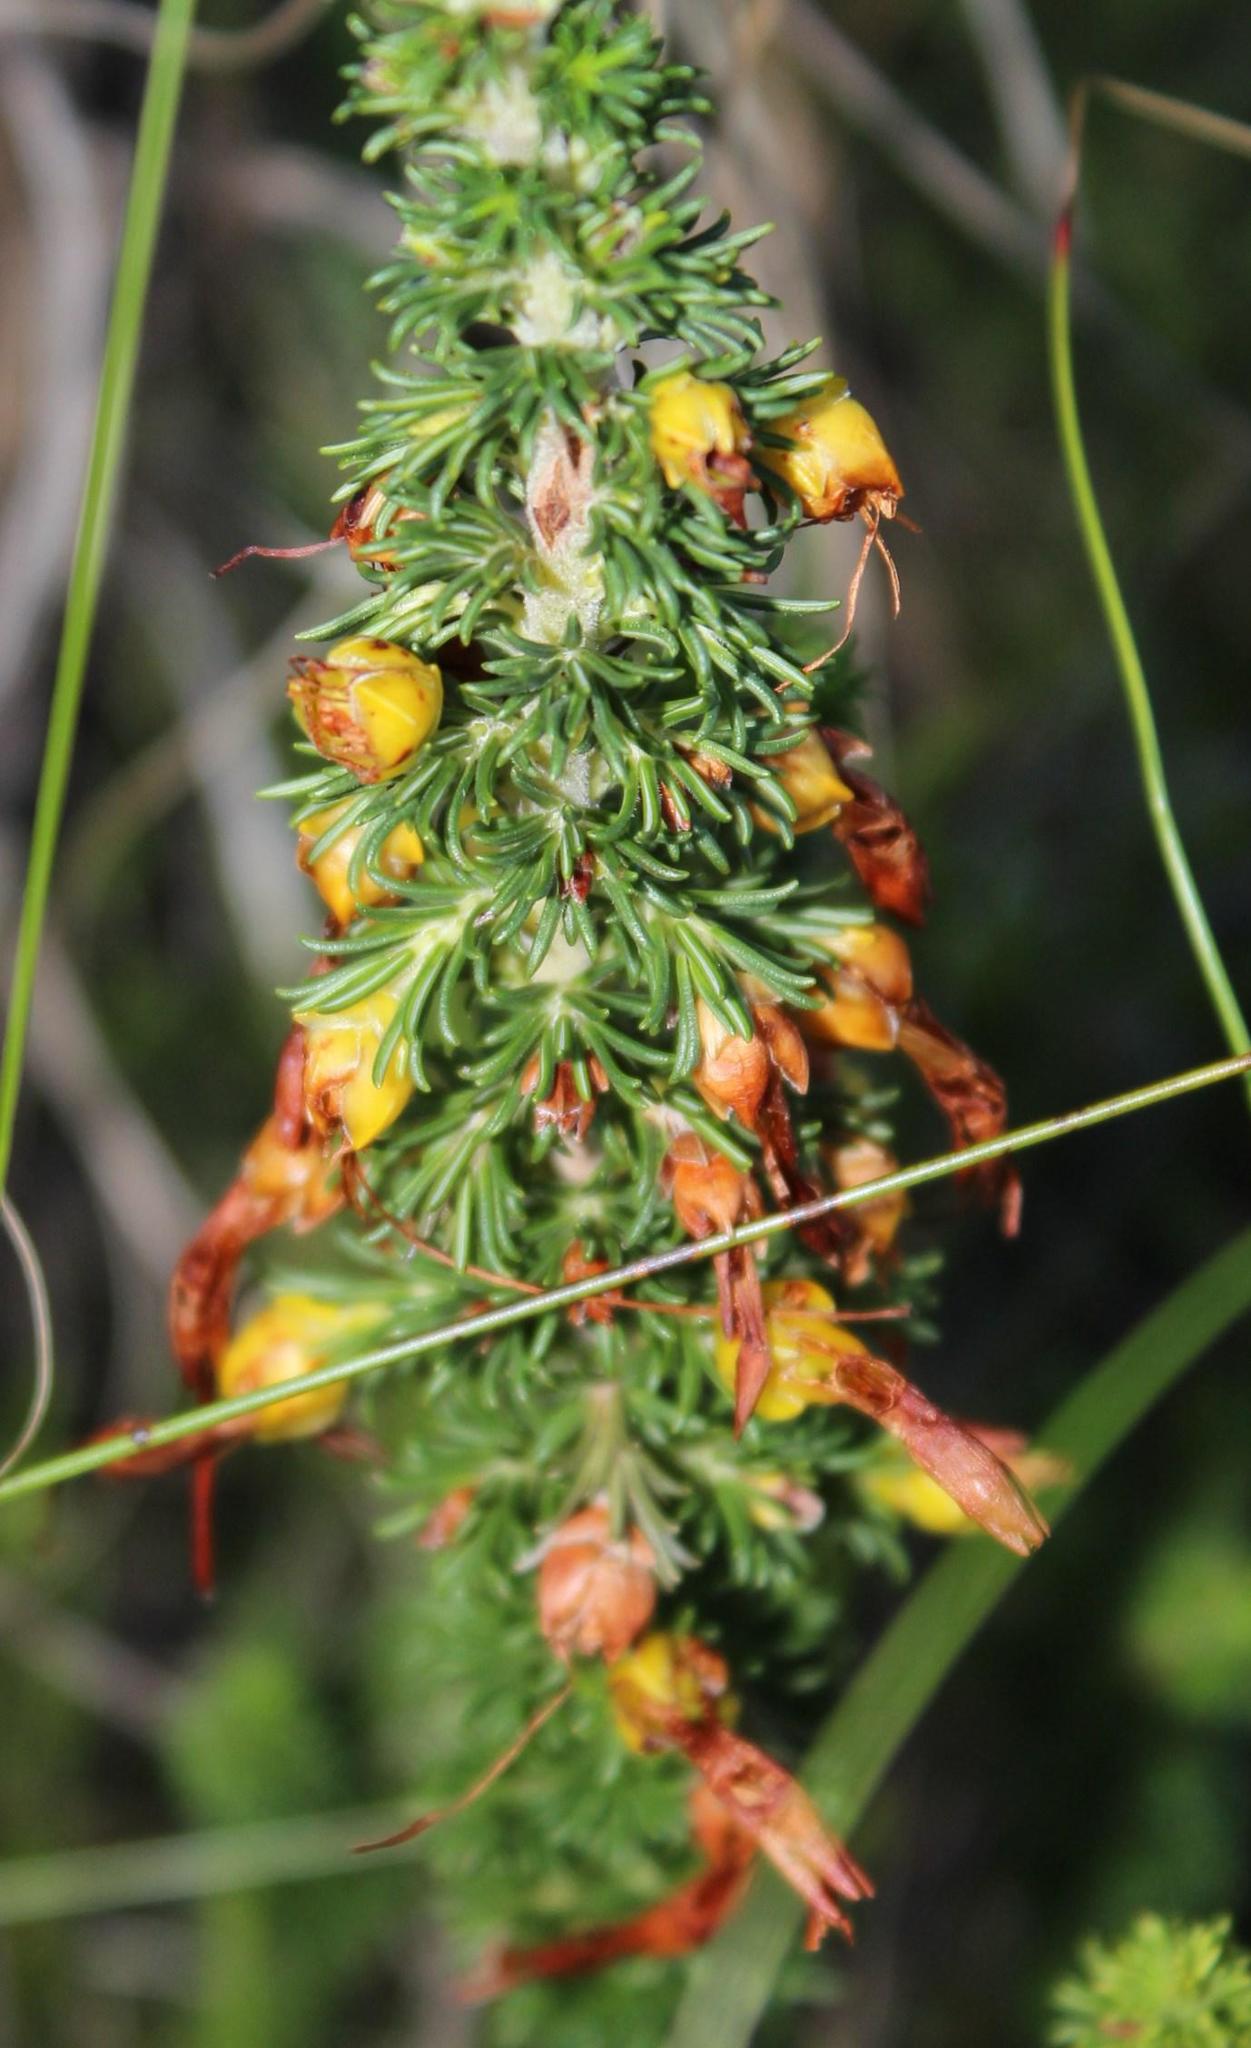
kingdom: Plantae
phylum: Tracheophyta
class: Magnoliopsida
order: Ericales
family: Ericaceae
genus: Erica
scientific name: Erica coccinea
